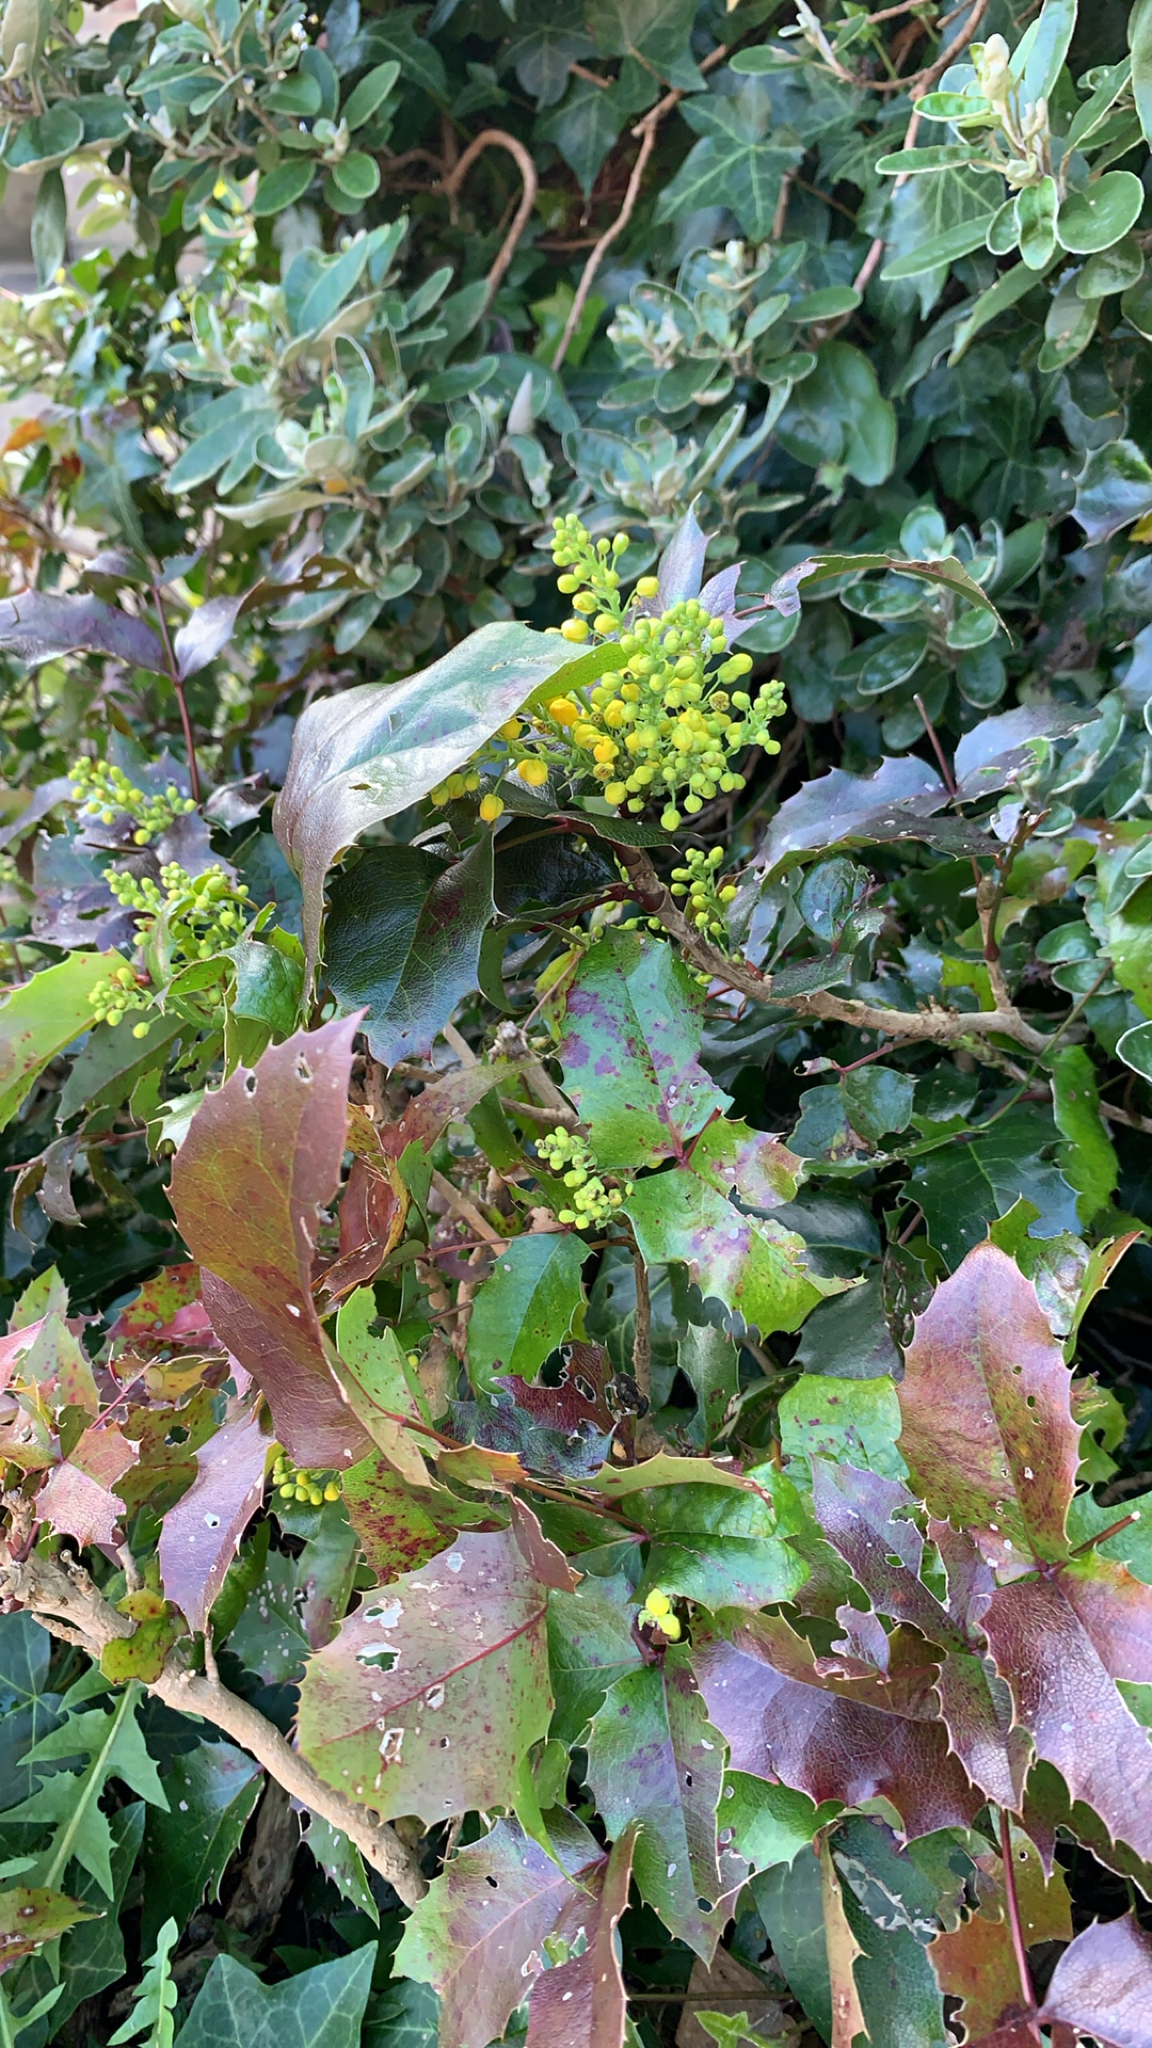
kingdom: Plantae
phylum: Tracheophyta
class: Magnoliopsida
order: Ranunculales
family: Berberidaceae
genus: Mahonia
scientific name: Mahonia aquifolium
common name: Oregon-grape
